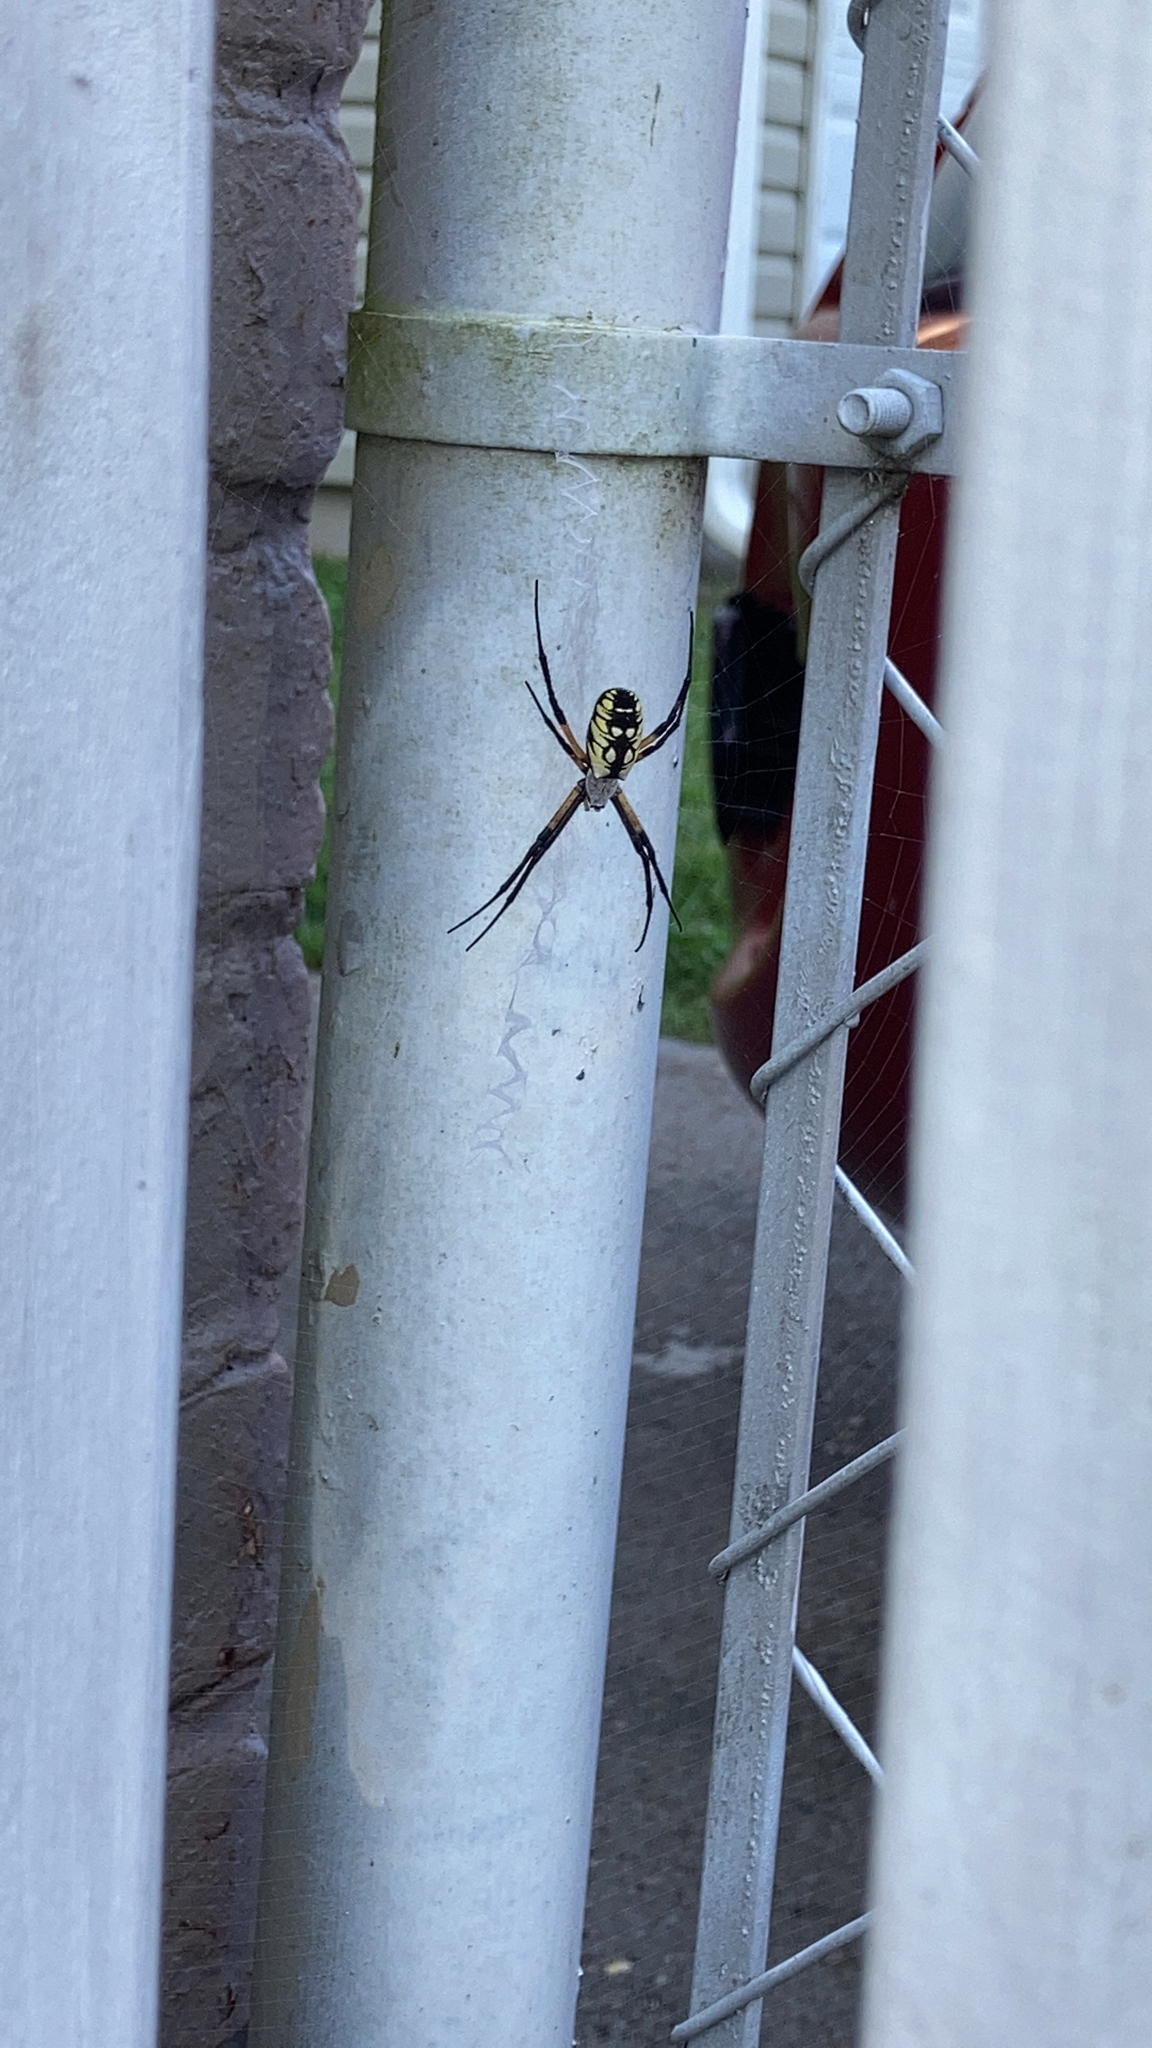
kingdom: Animalia
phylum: Arthropoda
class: Arachnida
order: Araneae
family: Araneidae
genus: Argiope
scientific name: Argiope aurantia
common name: Orb weavers
